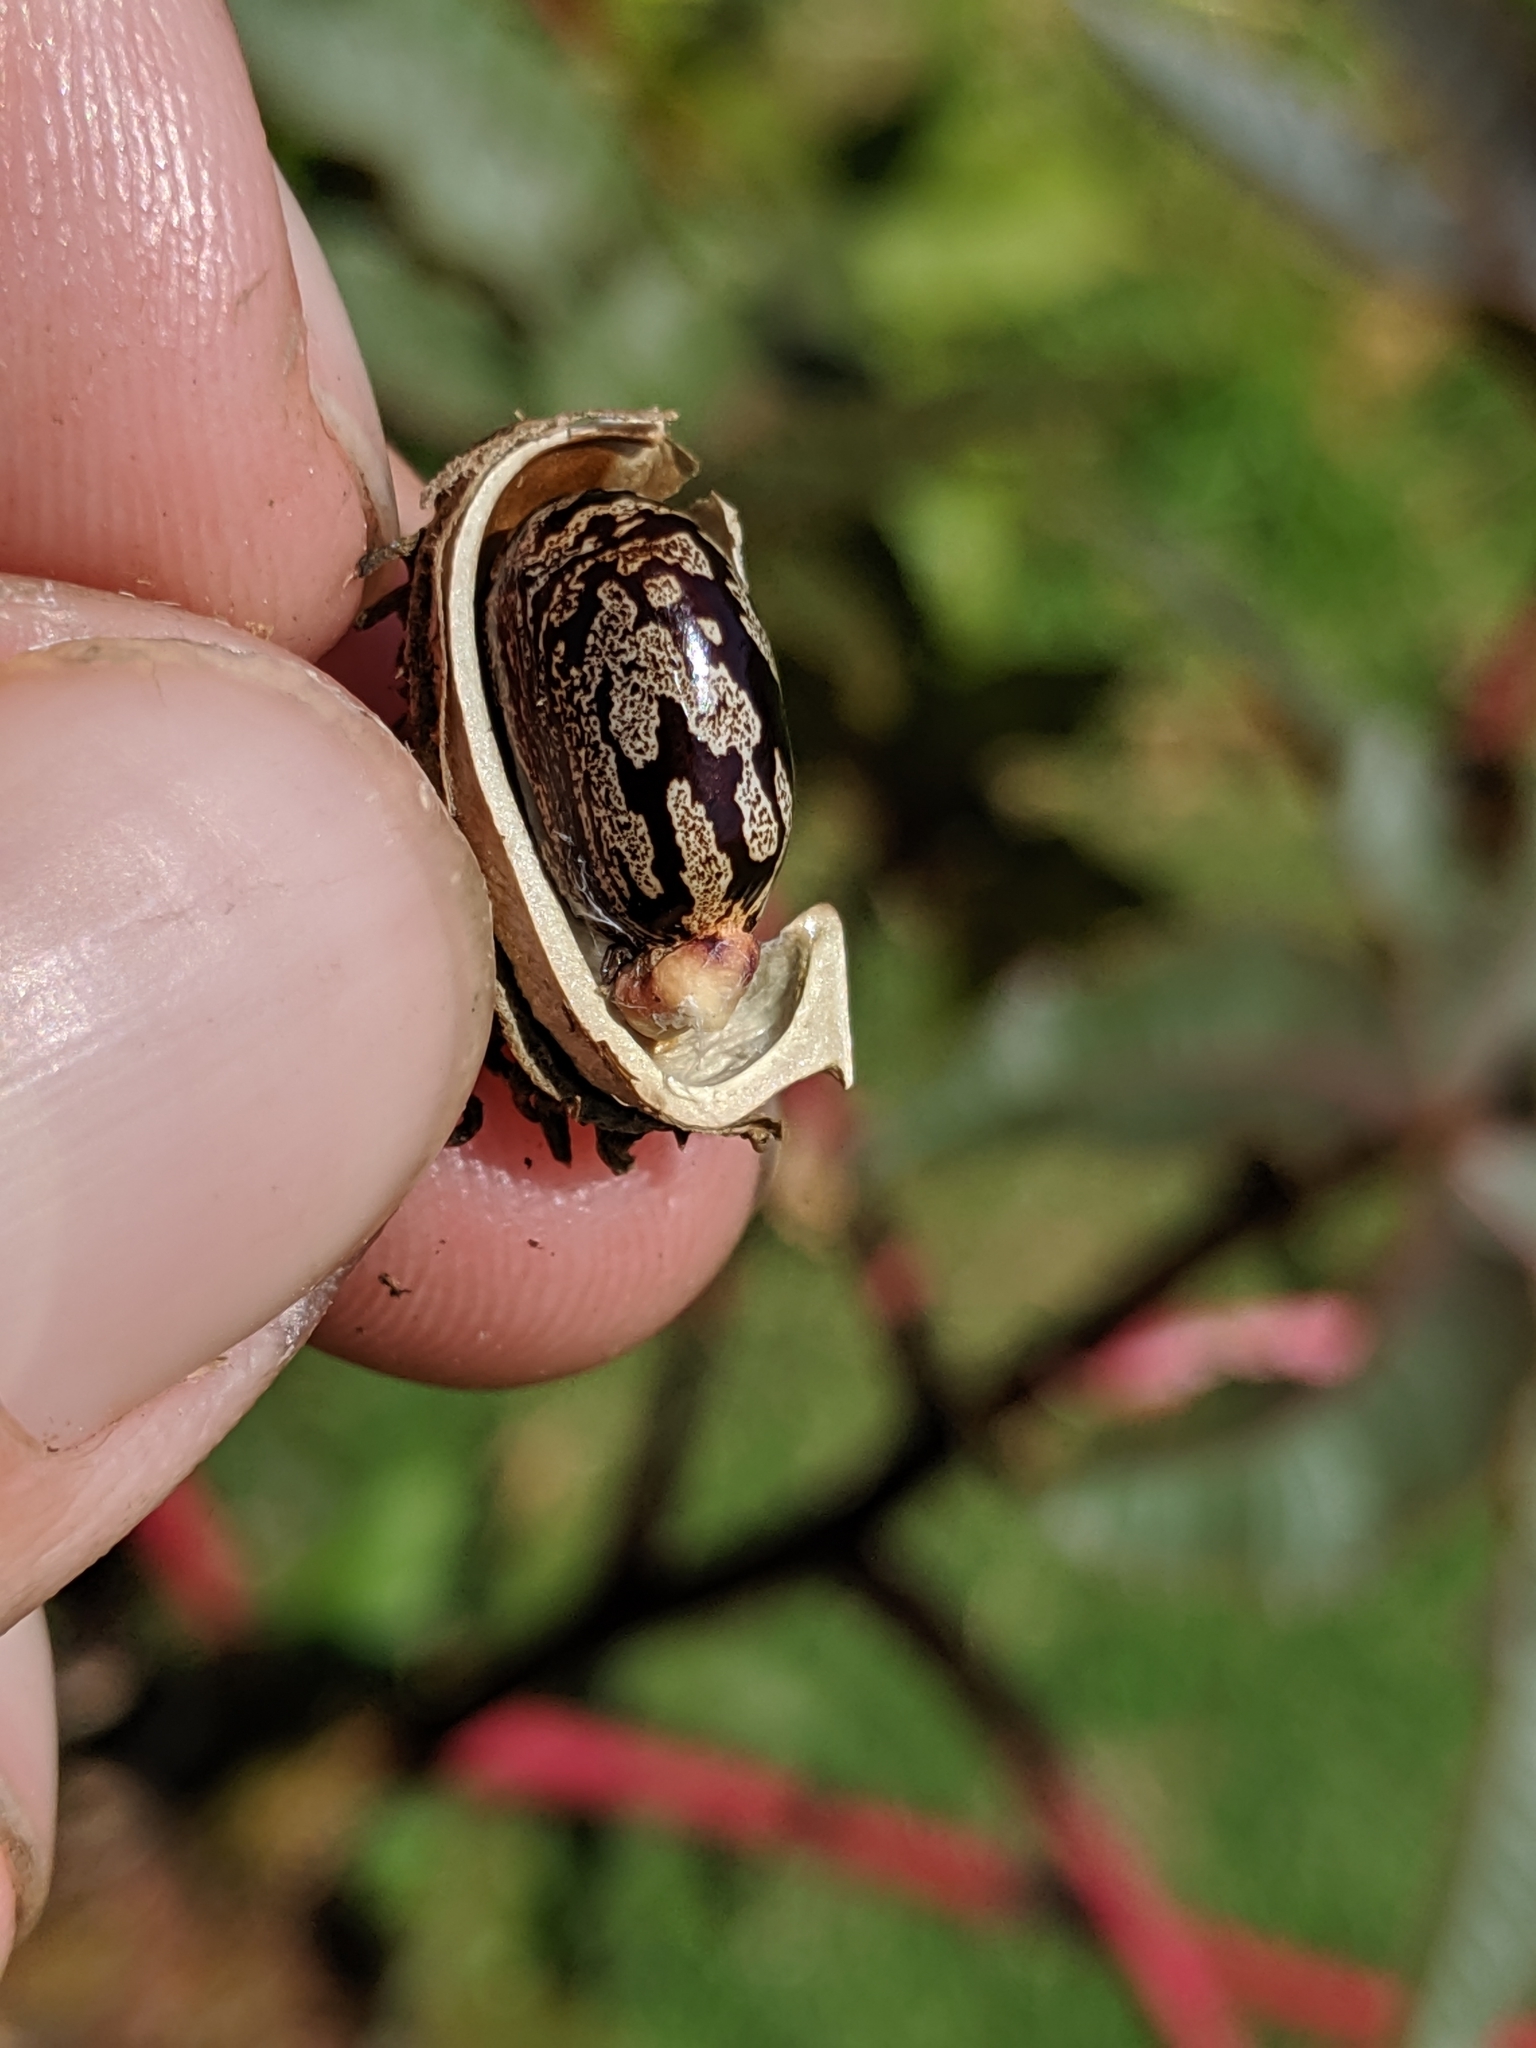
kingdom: Plantae
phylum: Tracheophyta
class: Magnoliopsida
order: Malpighiales
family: Euphorbiaceae
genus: Ricinus
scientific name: Ricinus communis
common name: Castor-oil-plant
